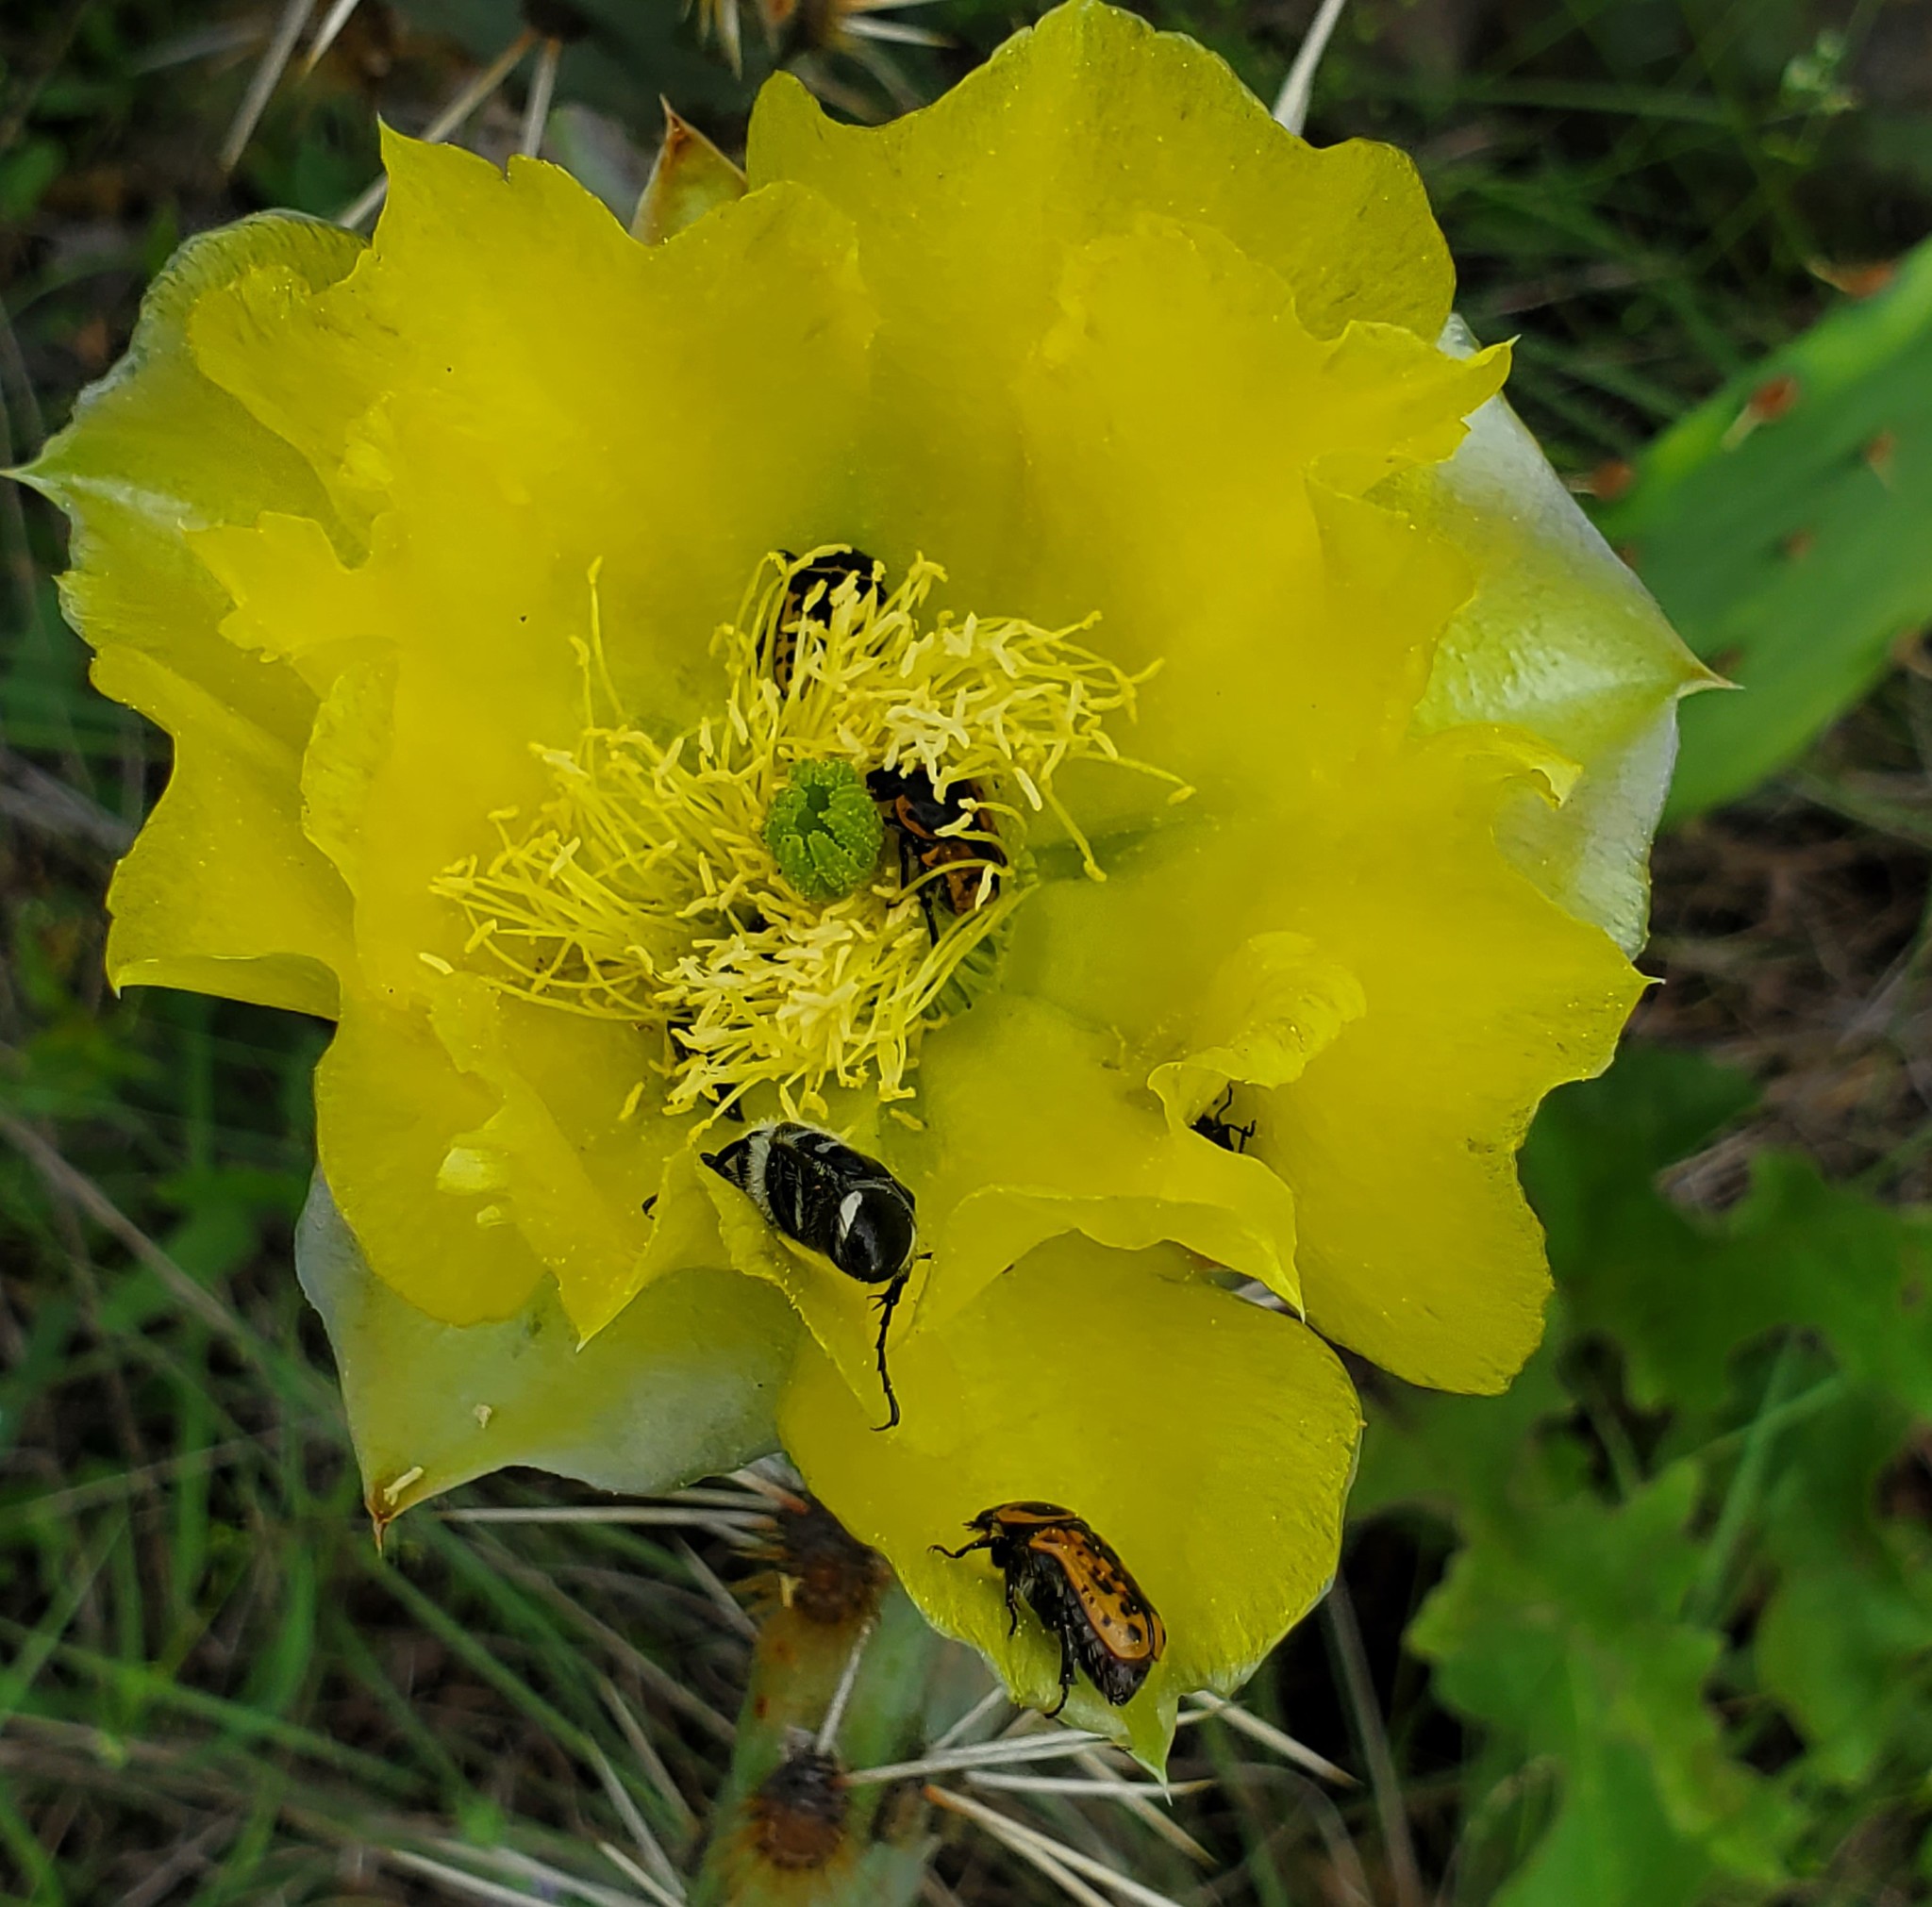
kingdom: Animalia
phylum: Arthropoda
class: Insecta
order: Coleoptera
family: Scarabaeidae
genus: Euphoria
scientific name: Euphoria kernii
